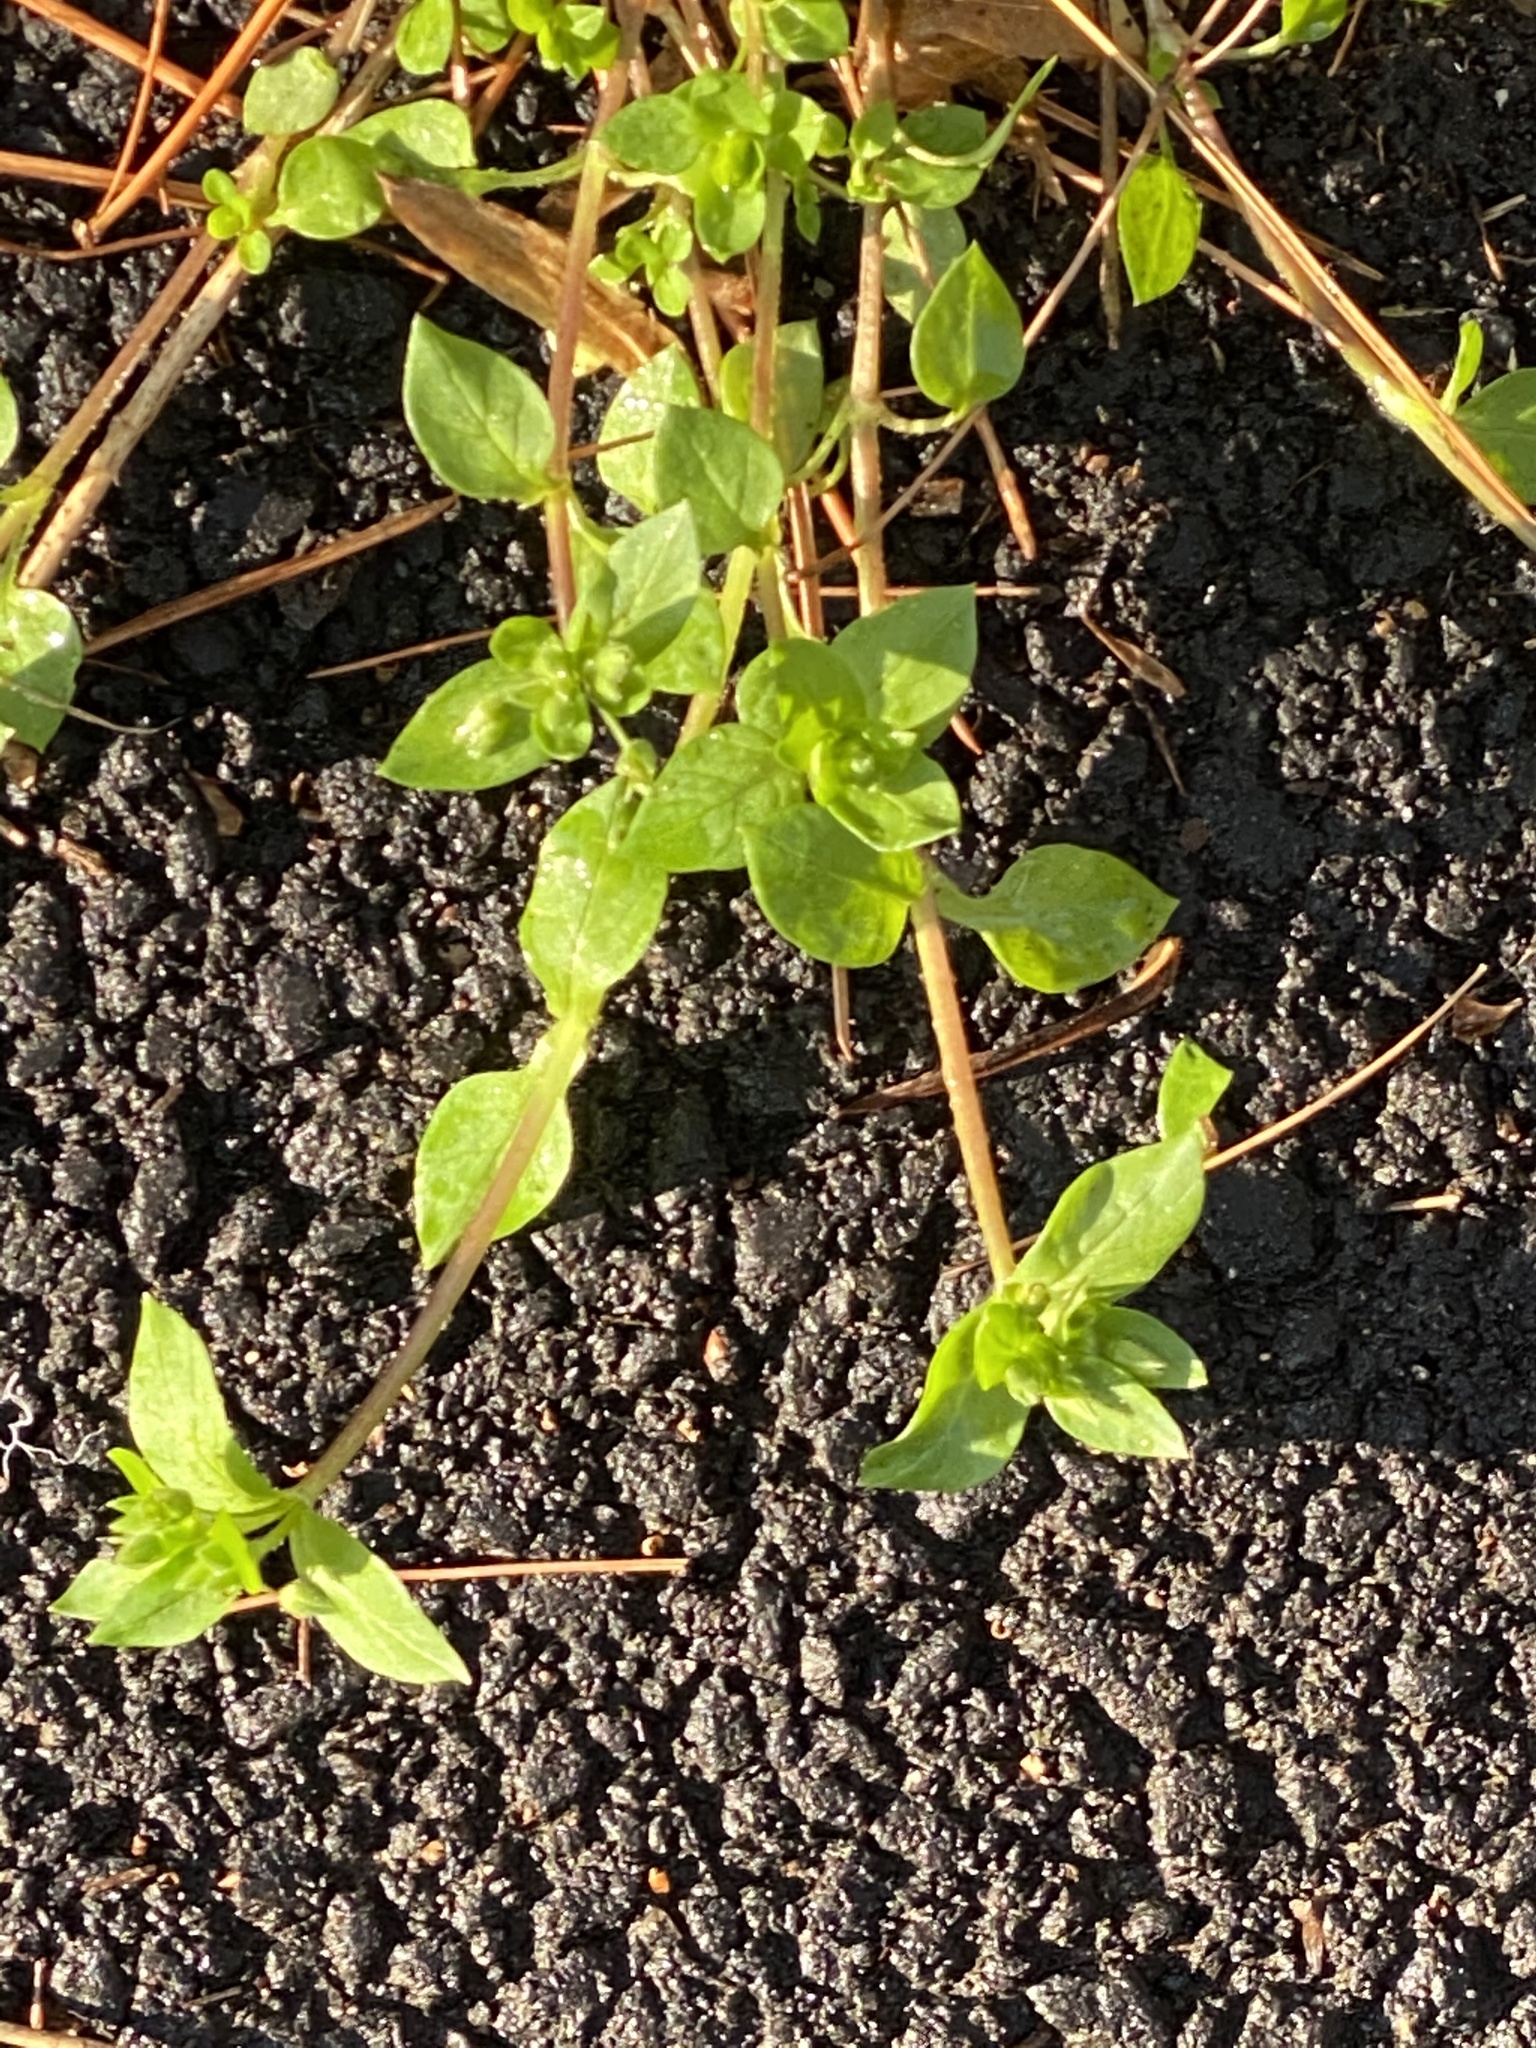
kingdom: Plantae
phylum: Tracheophyta
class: Magnoliopsida
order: Caryophyllales
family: Caryophyllaceae
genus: Stellaria
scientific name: Stellaria media
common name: Common chickweed
